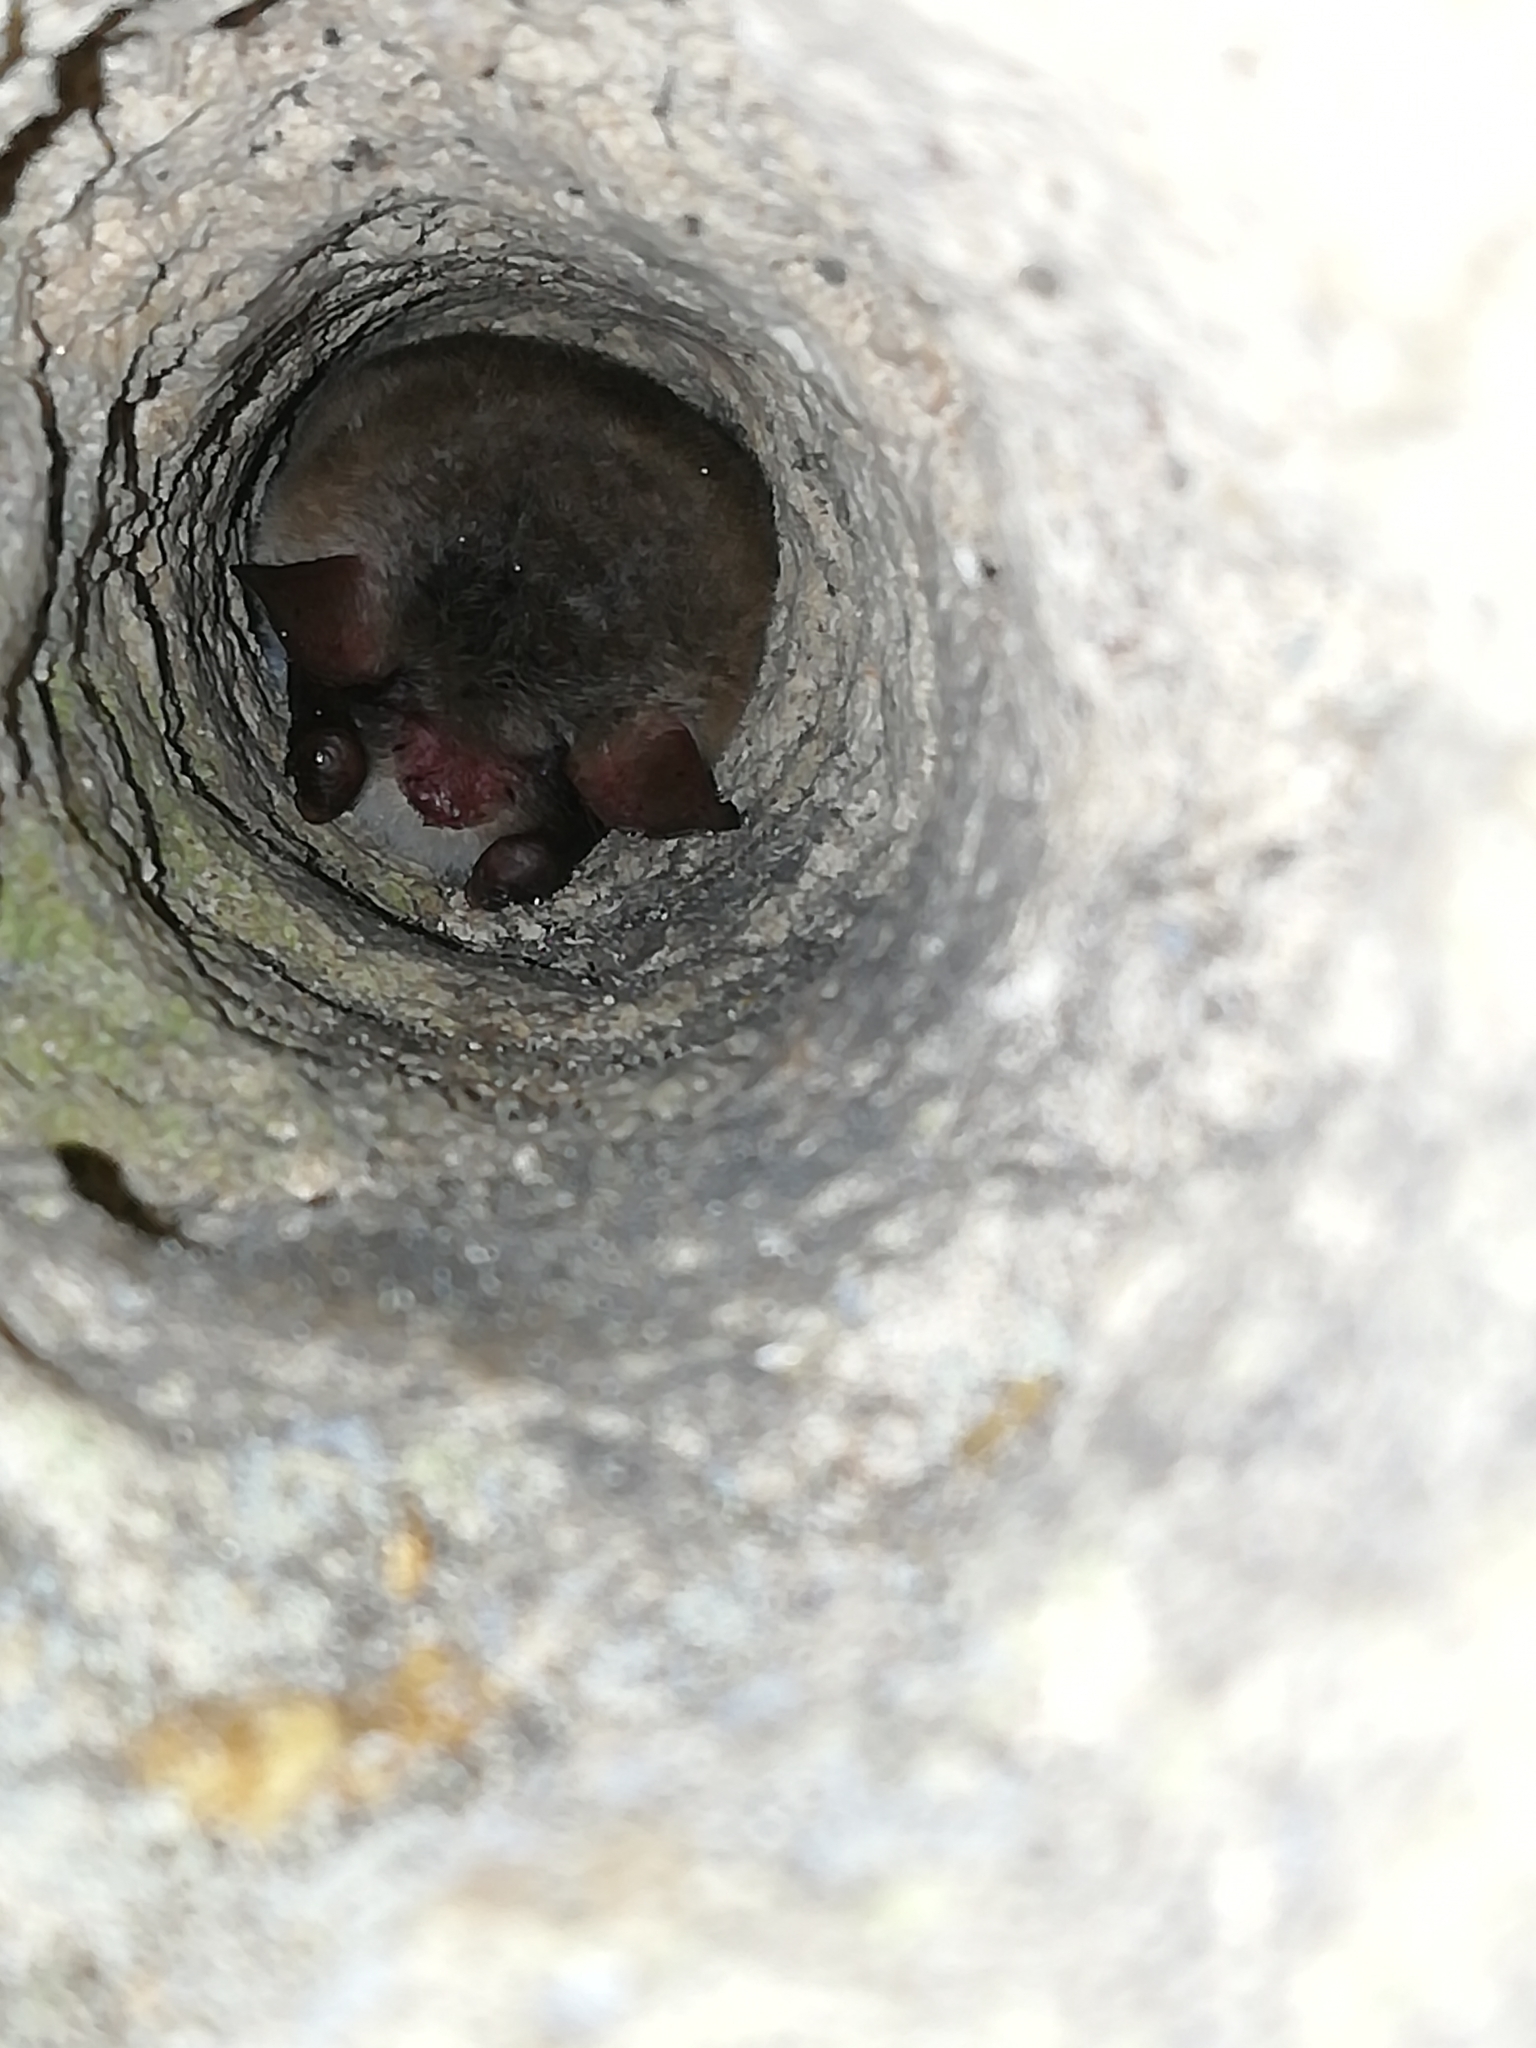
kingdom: Animalia
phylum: Chordata
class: Mammalia
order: Chiroptera
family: Vespertilionidae
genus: Myotis
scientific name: Myotis nattereri
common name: Natterer's bat
